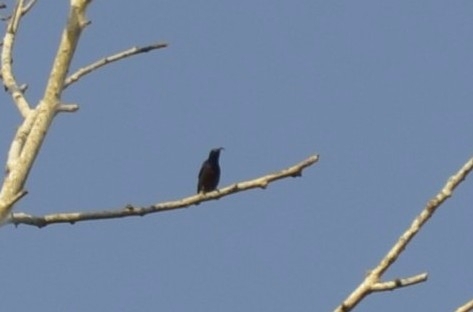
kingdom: Animalia
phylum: Chordata
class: Aves
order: Passeriformes
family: Nectariniidae
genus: Cinnyris
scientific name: Cinnyris lotenius
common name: Loten's sunbird
